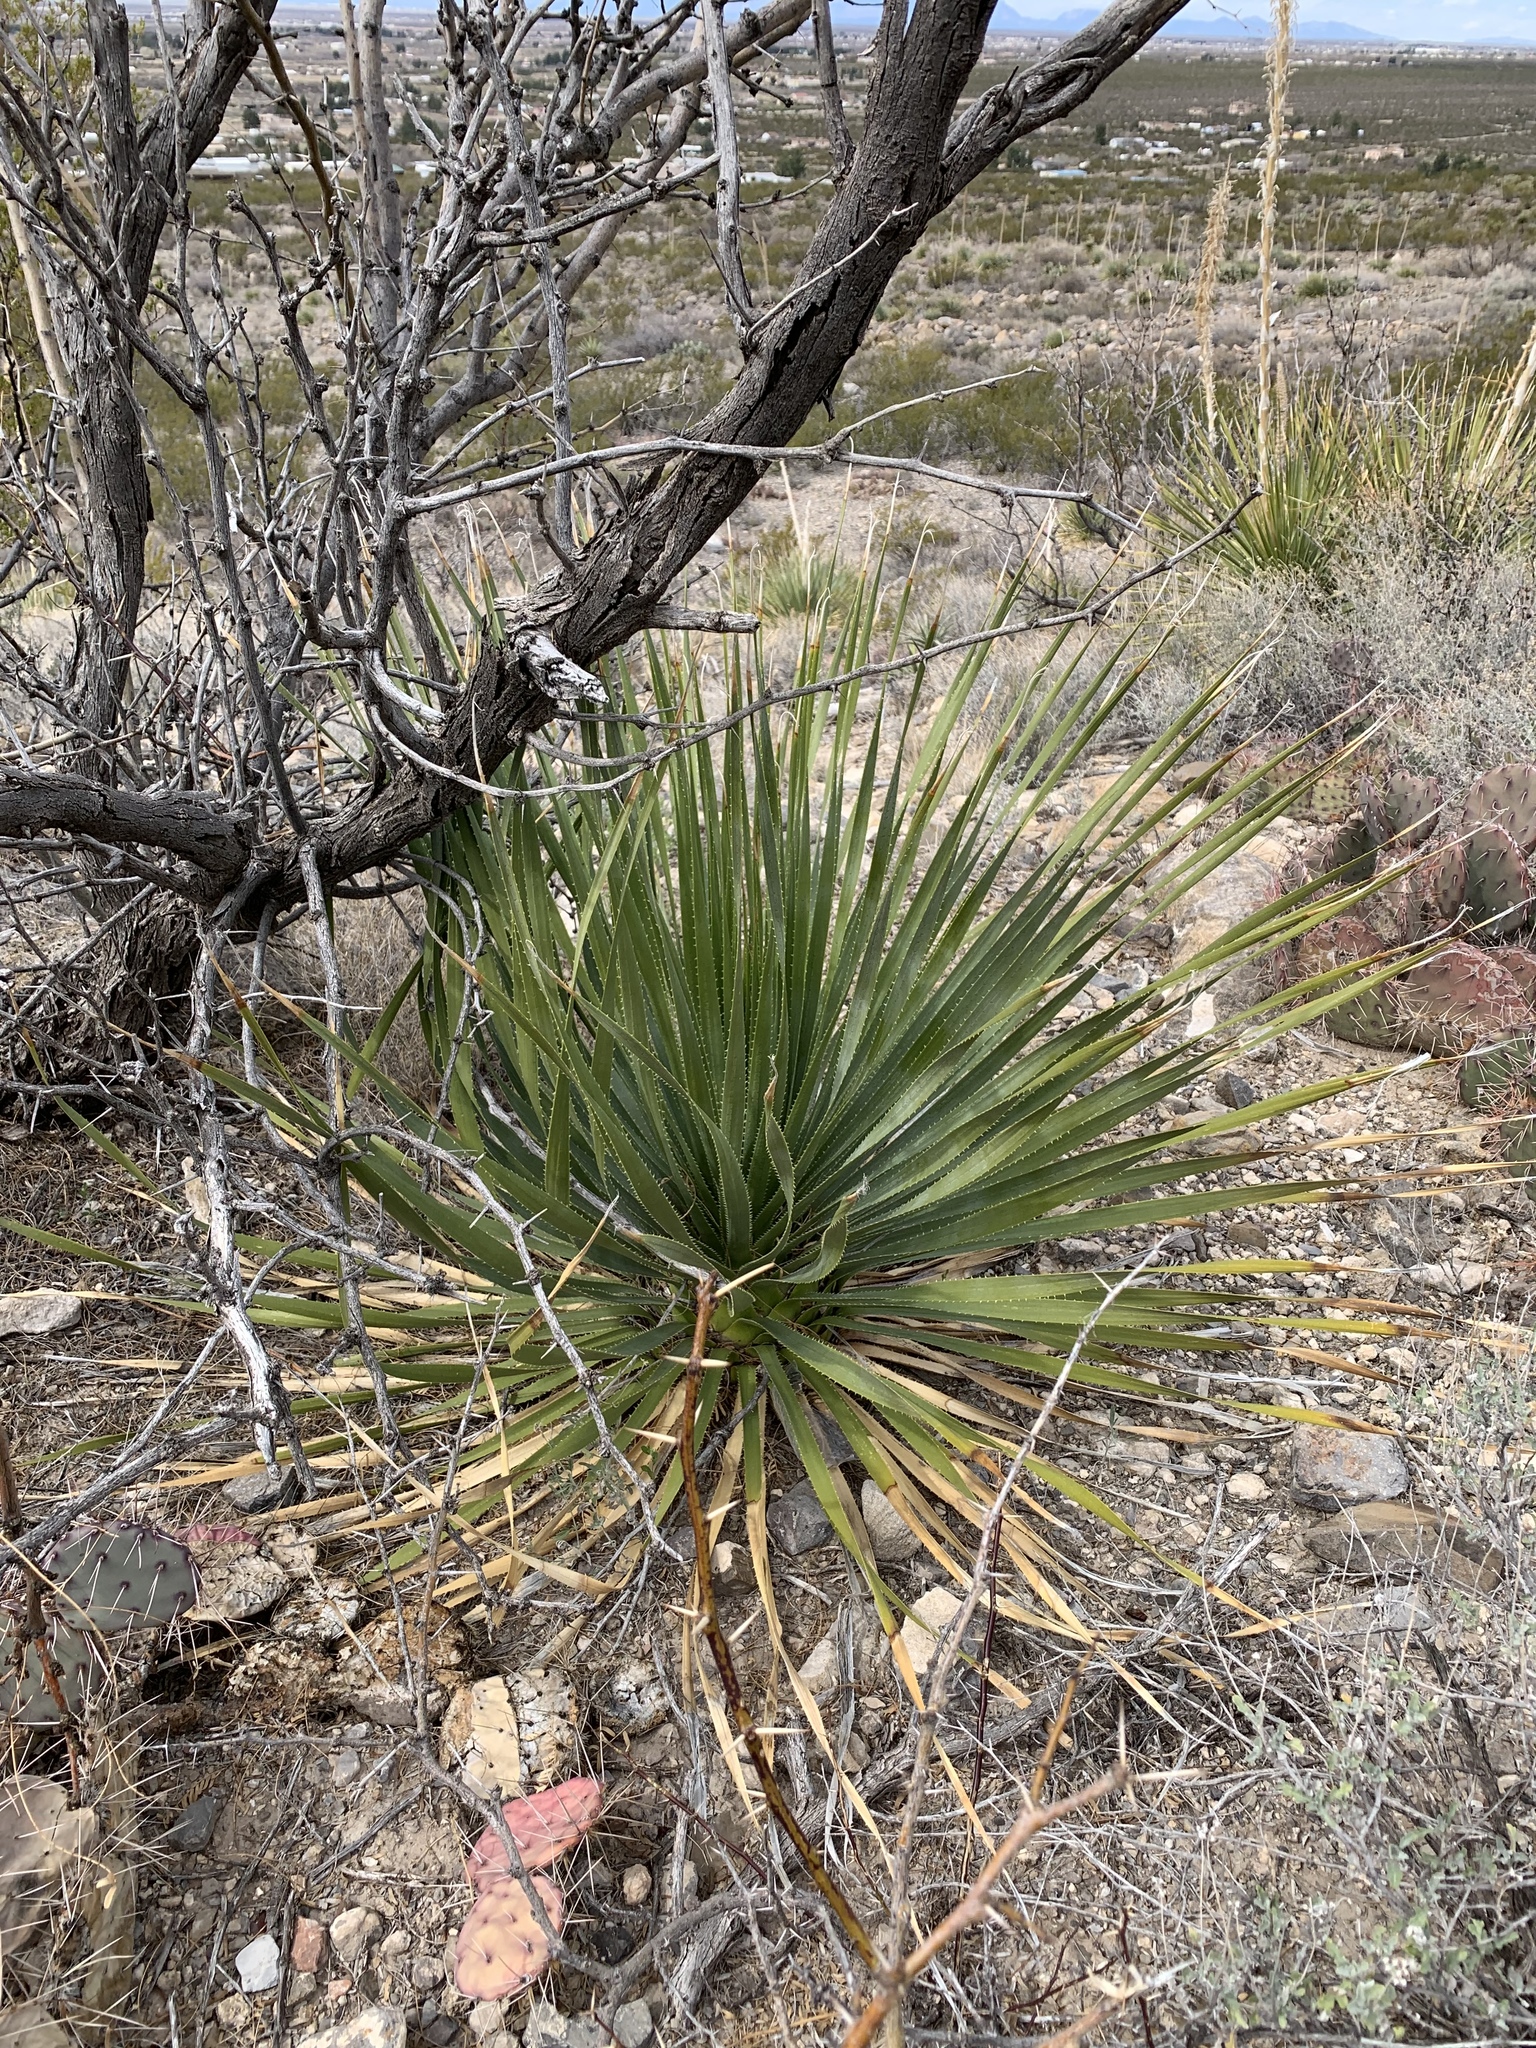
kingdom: Plantae
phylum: Tracheophyta
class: Liliopsida
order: Asparagales
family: Asparagaceae
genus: Dasylirion
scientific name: Dasylirion wheeleri
